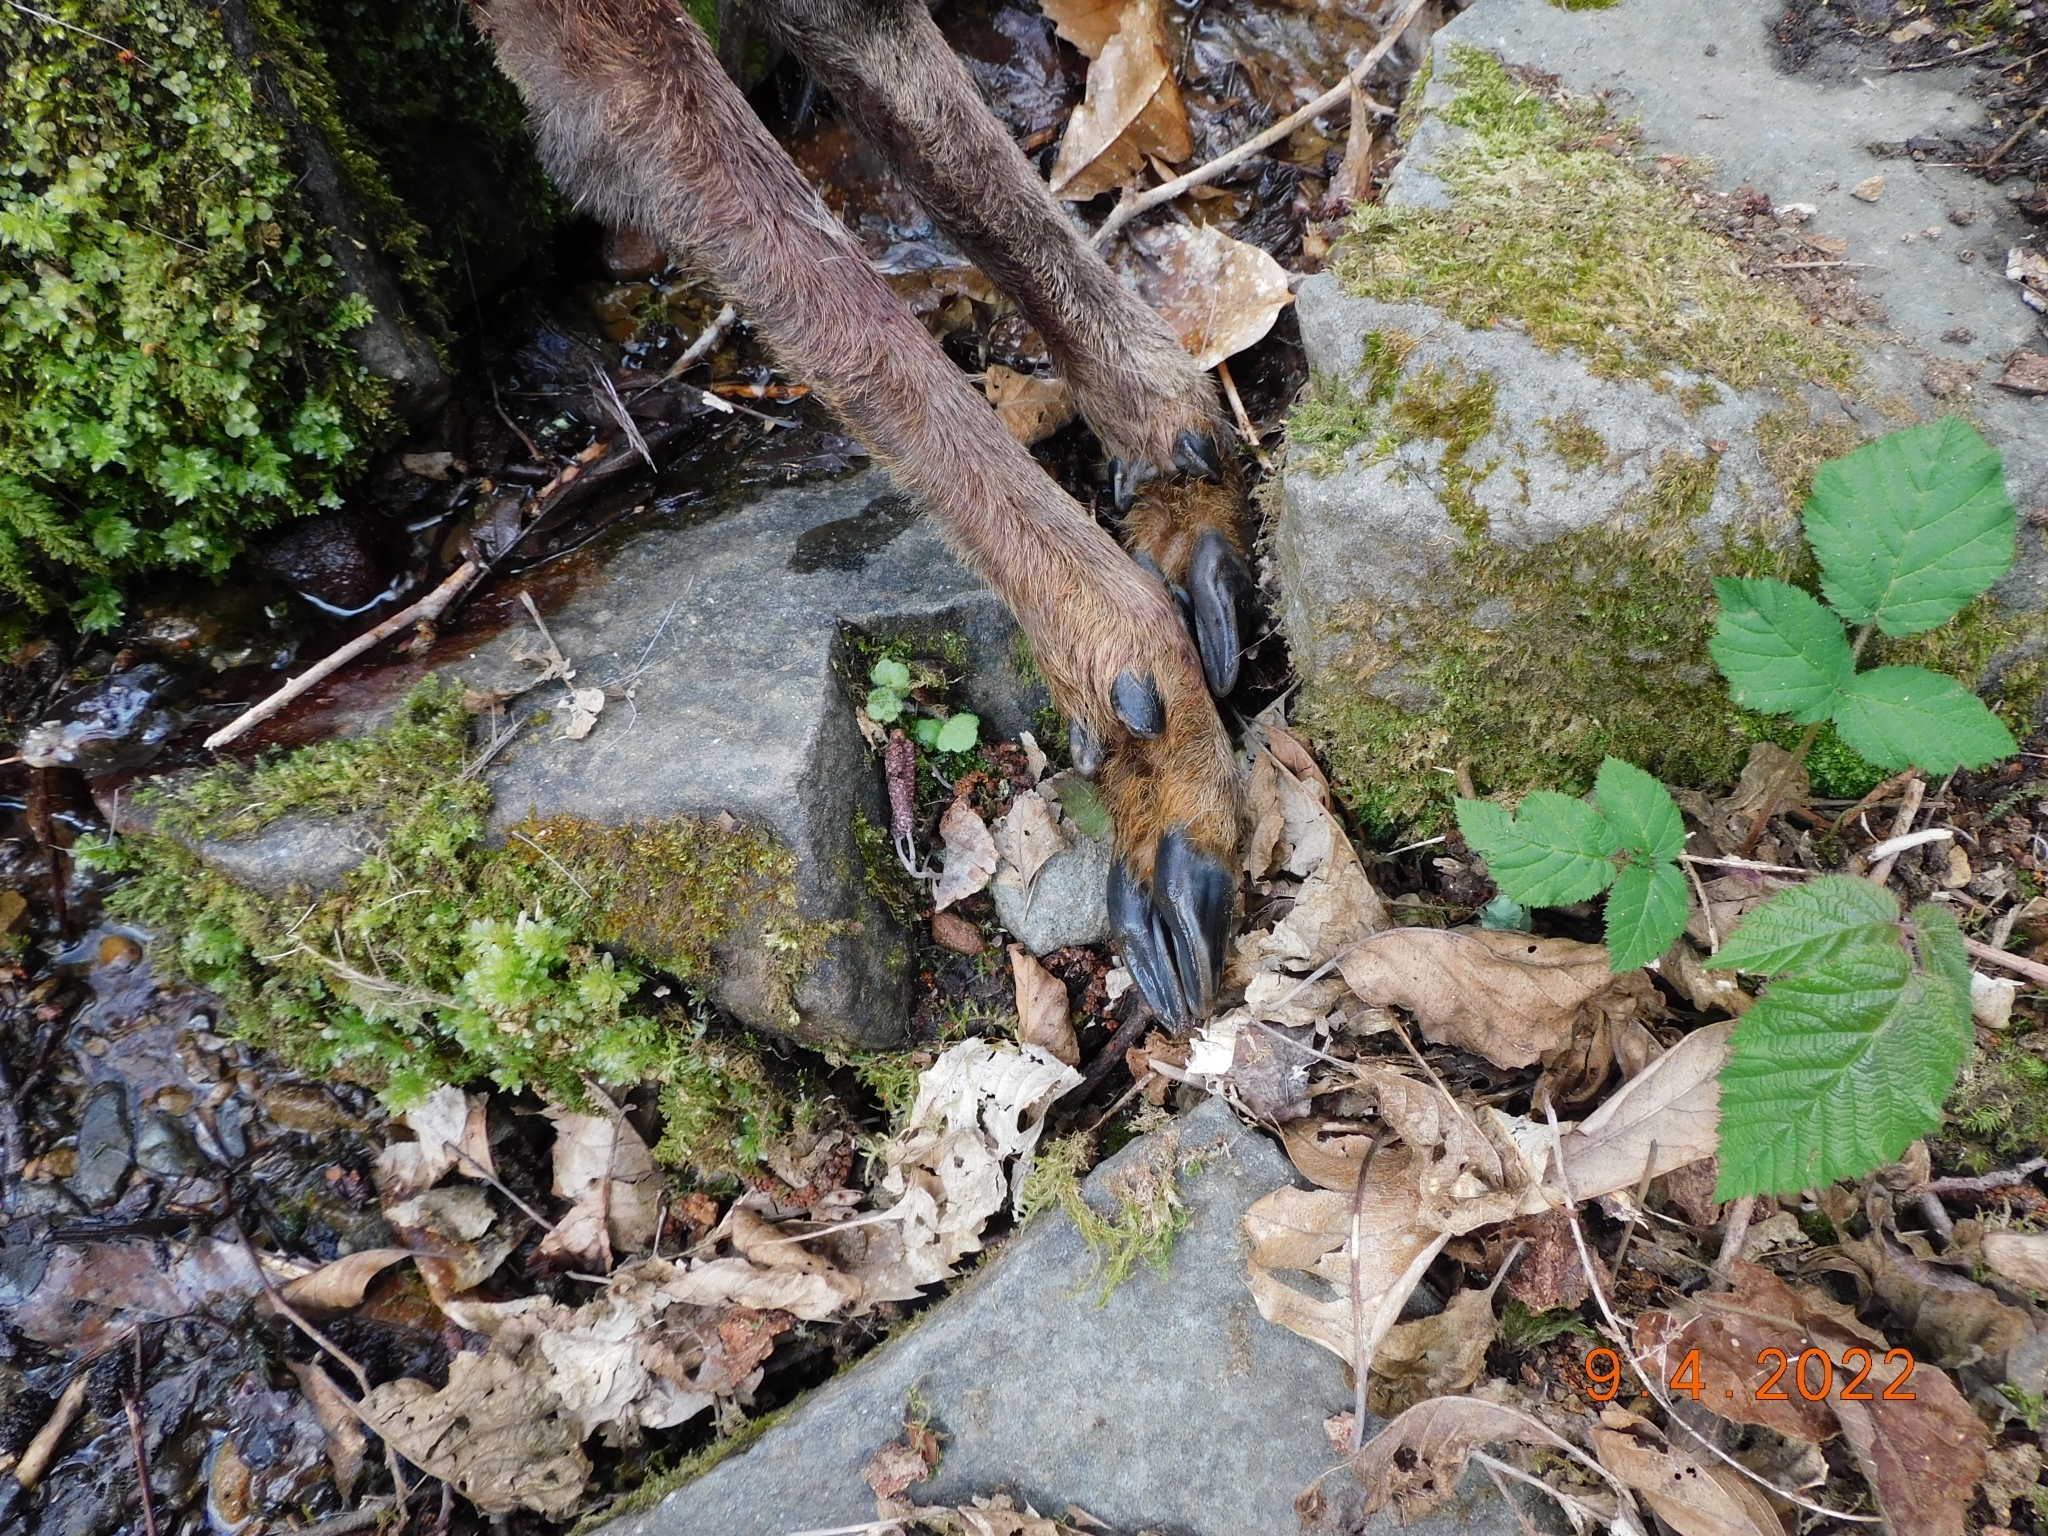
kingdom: Animalia
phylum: Chordata
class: Mammalia
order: Artiodactyla
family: Cervidae
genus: Capreolus
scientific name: Capreolus capreolus
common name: Western roe deer
